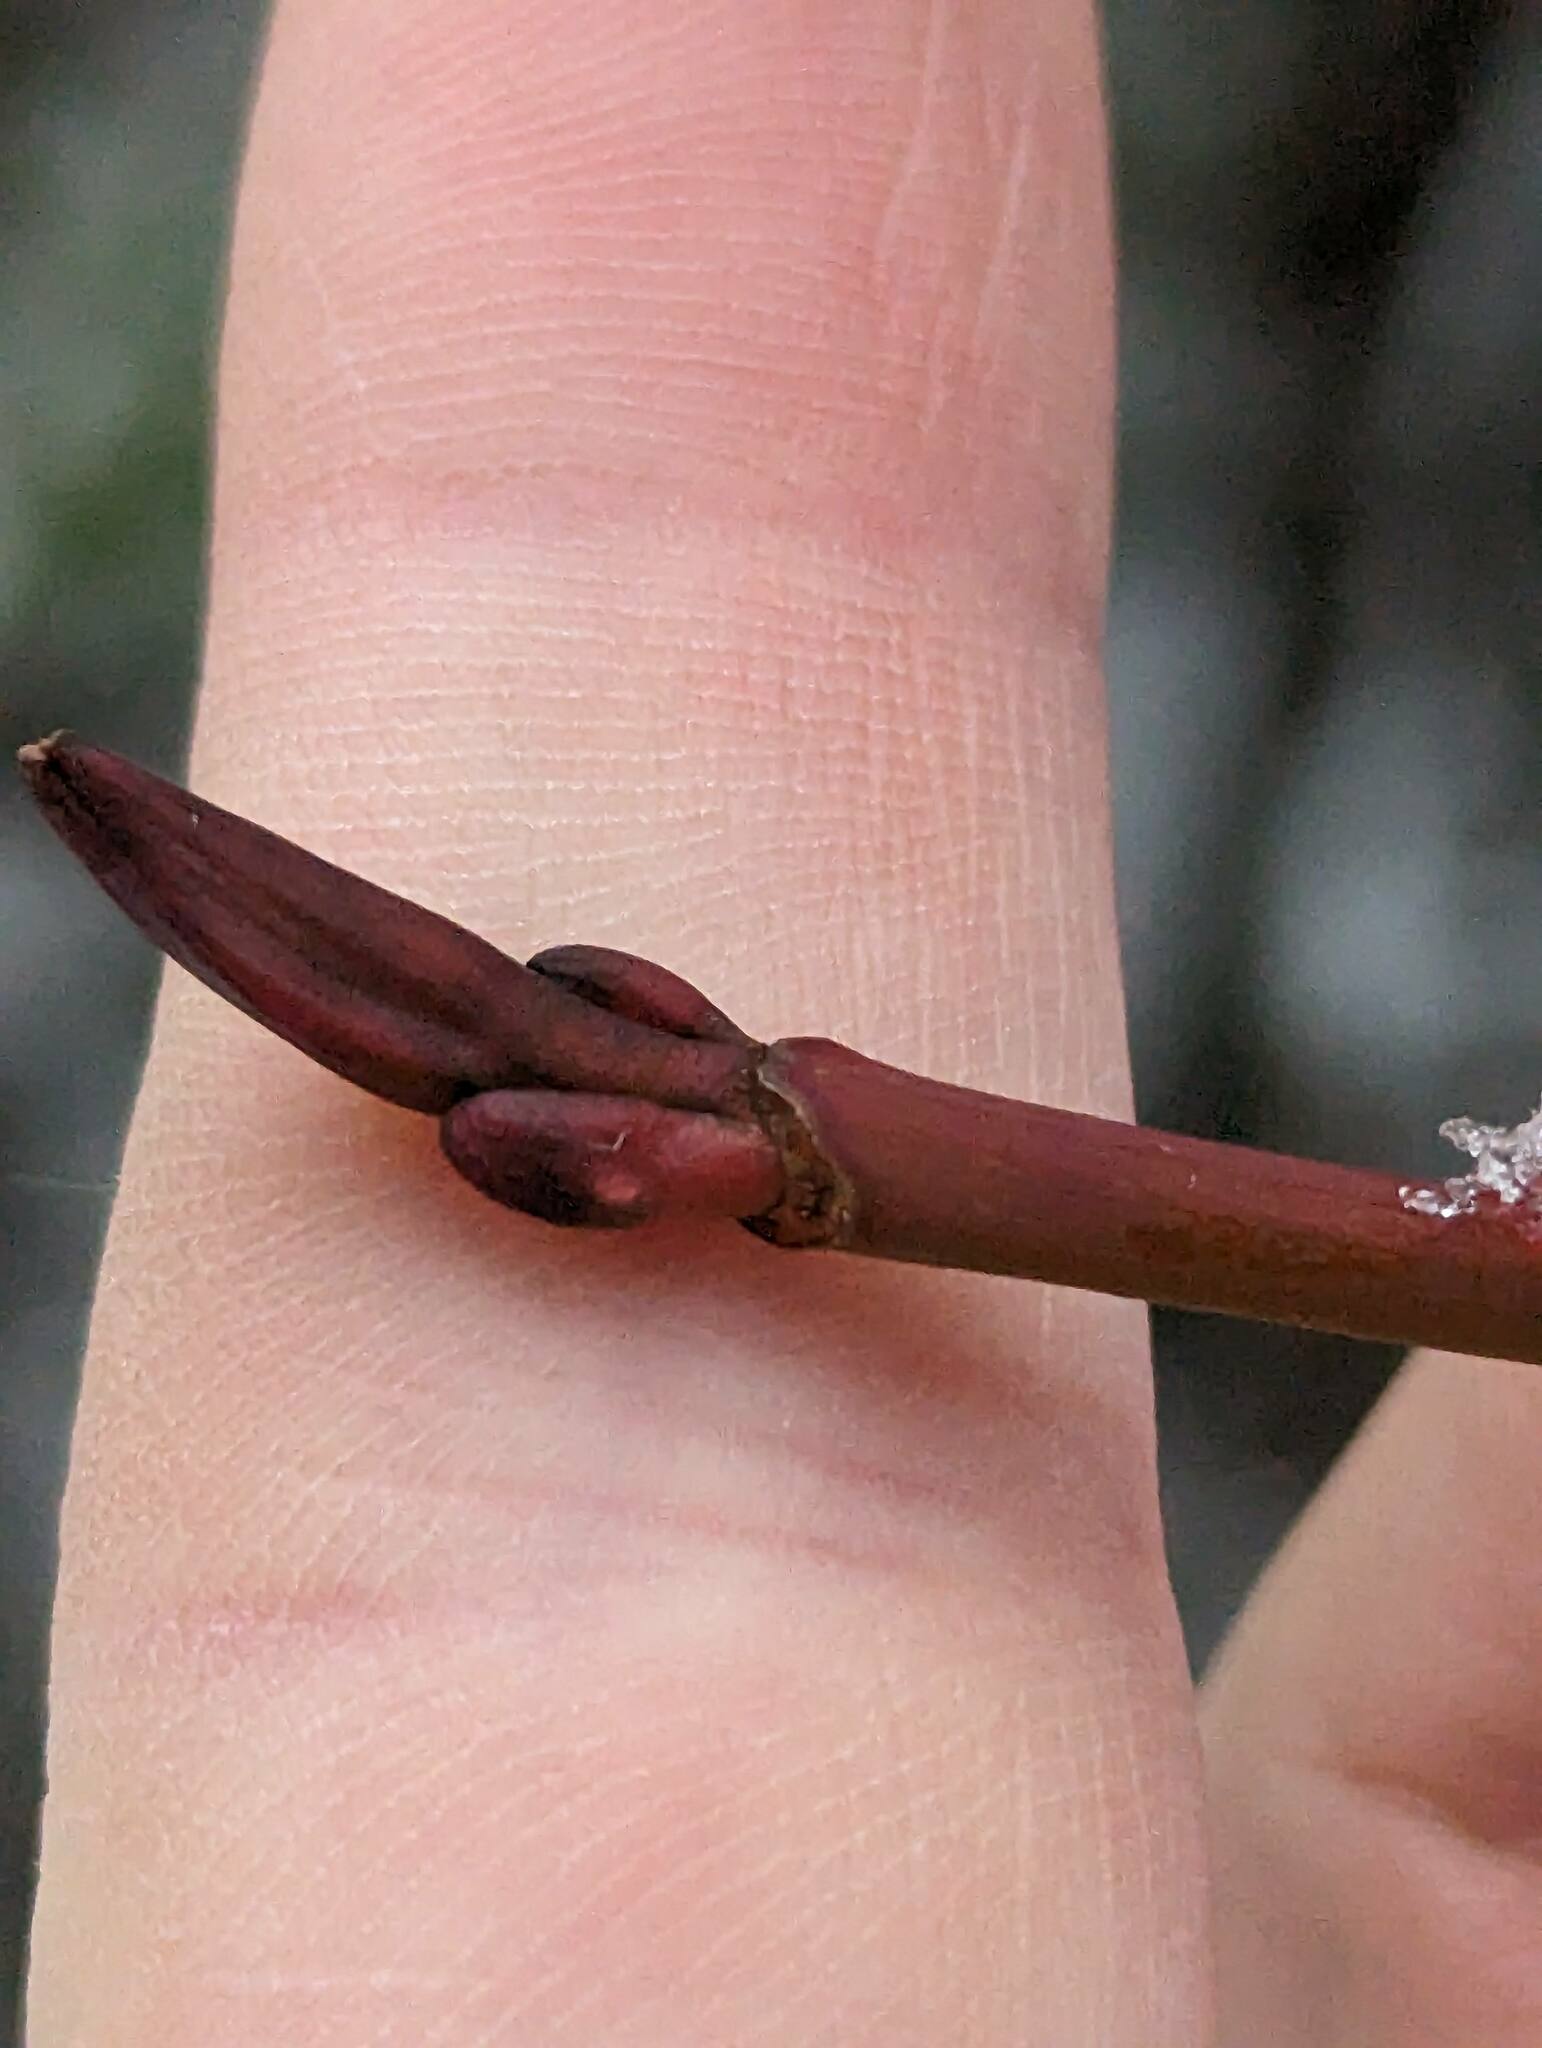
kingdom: Plantae
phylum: Tracheophyta
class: Magnoliopsida
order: Sapindales
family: Sapindaceae
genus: Acer
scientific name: Acer pensylvanicum
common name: Moosewood
